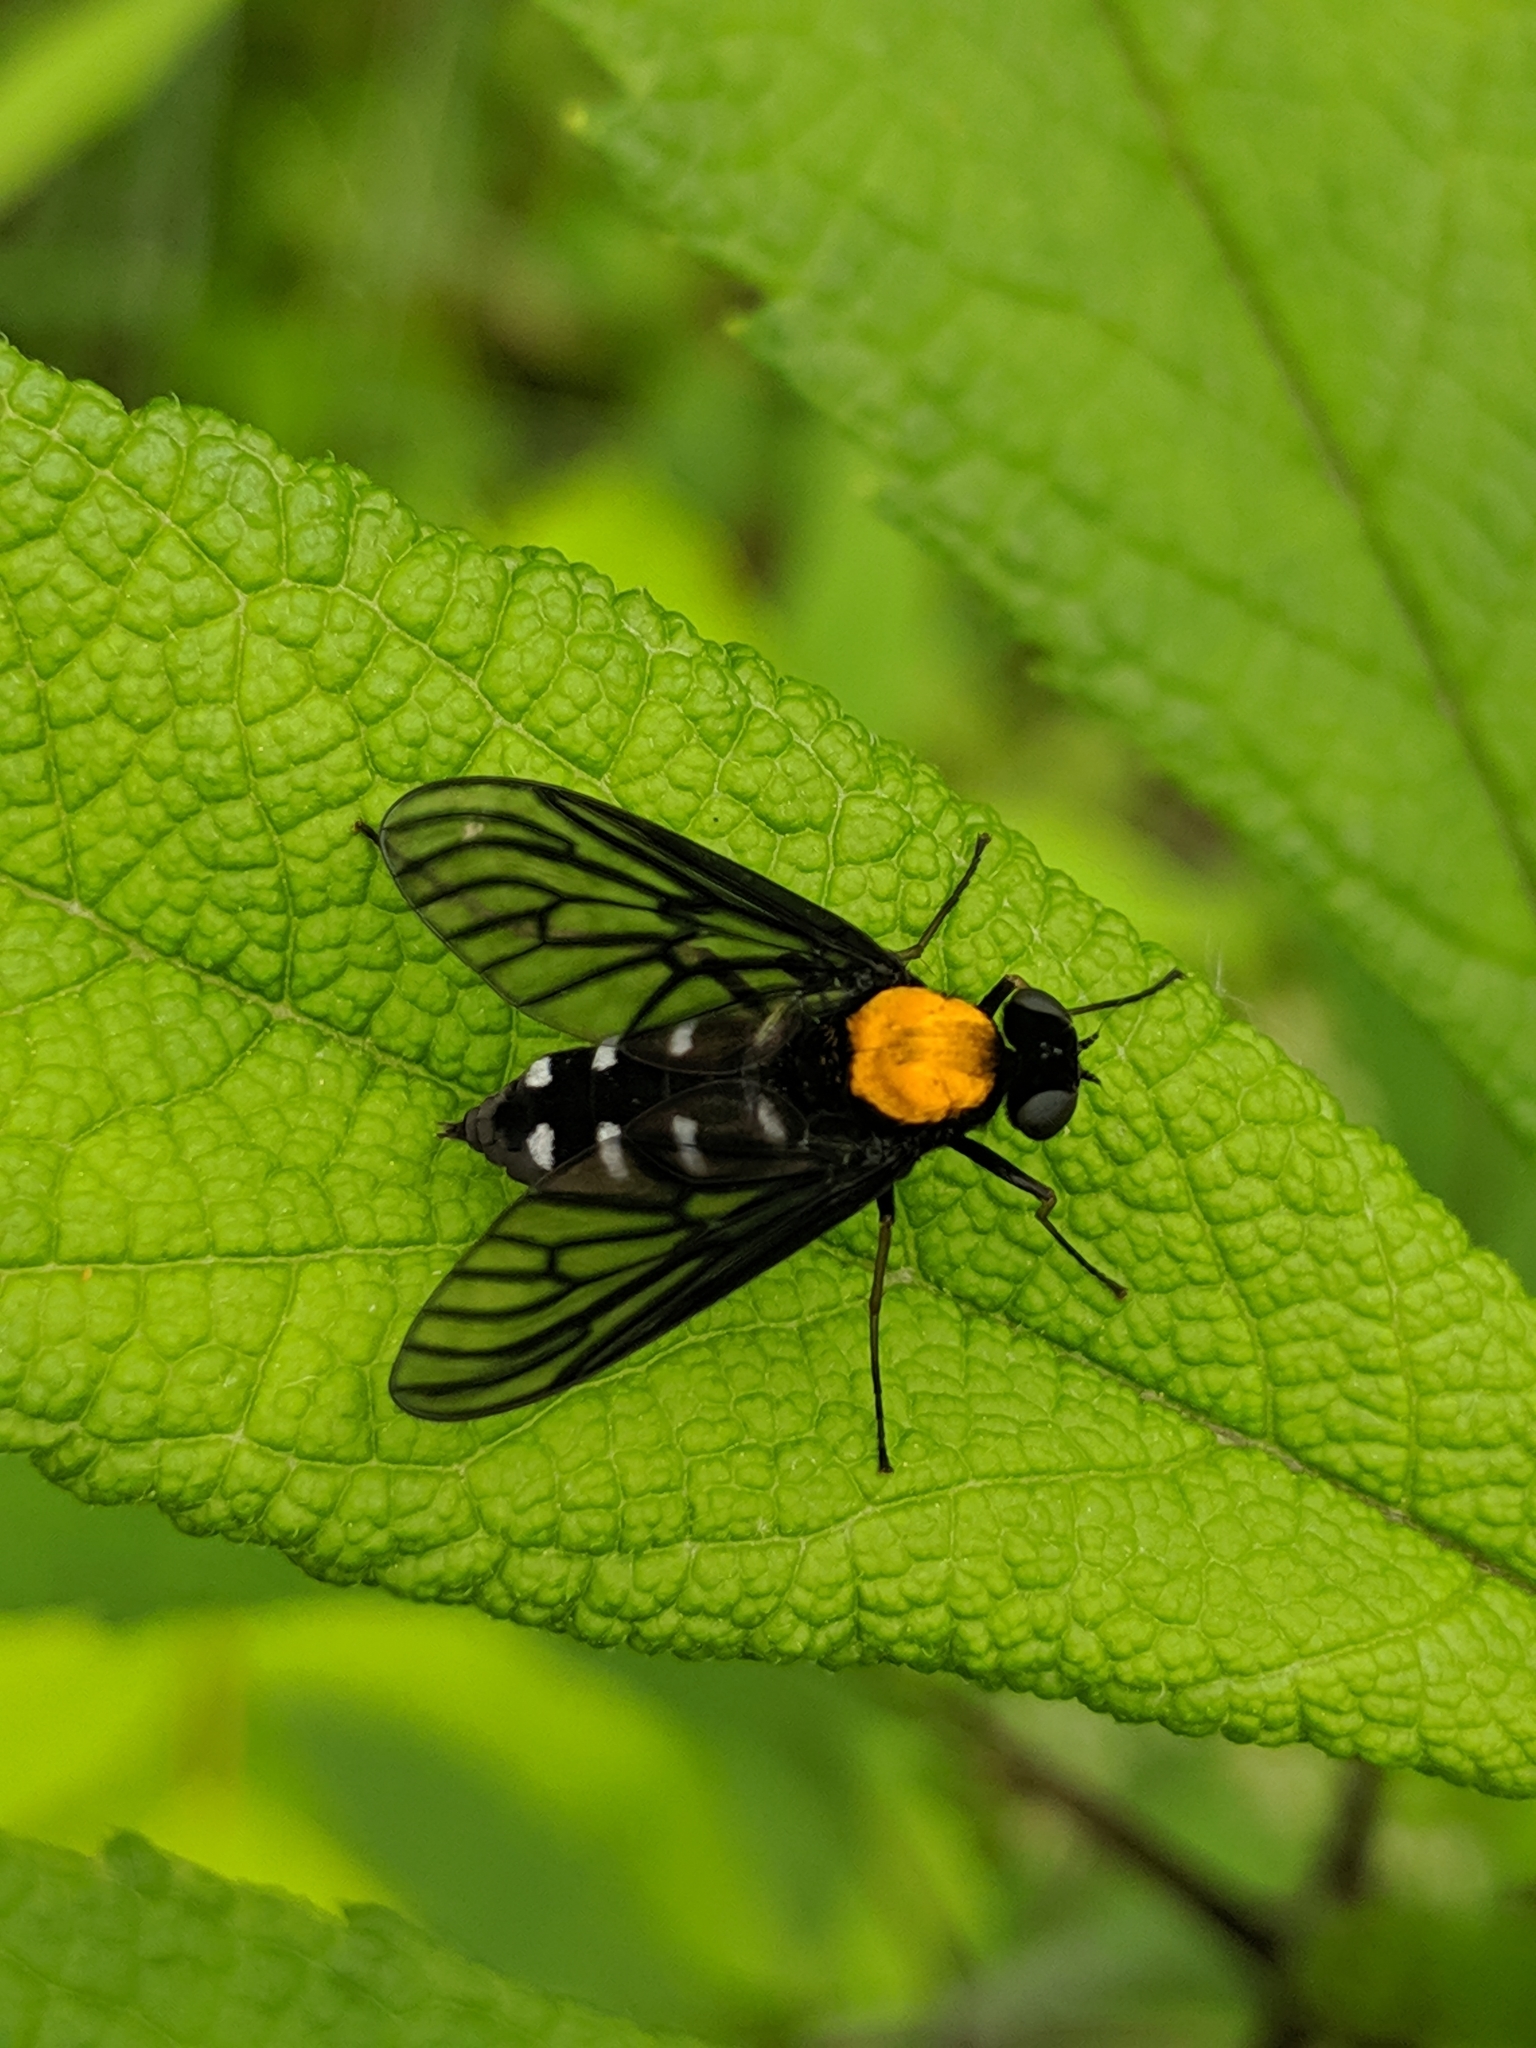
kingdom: Animalia
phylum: Arthropoda
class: Insecta
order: Diptera
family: Rhagionidae
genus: Chrysopilus
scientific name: Chrysopilus thoracicus
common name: Golden-backed snipe fly
